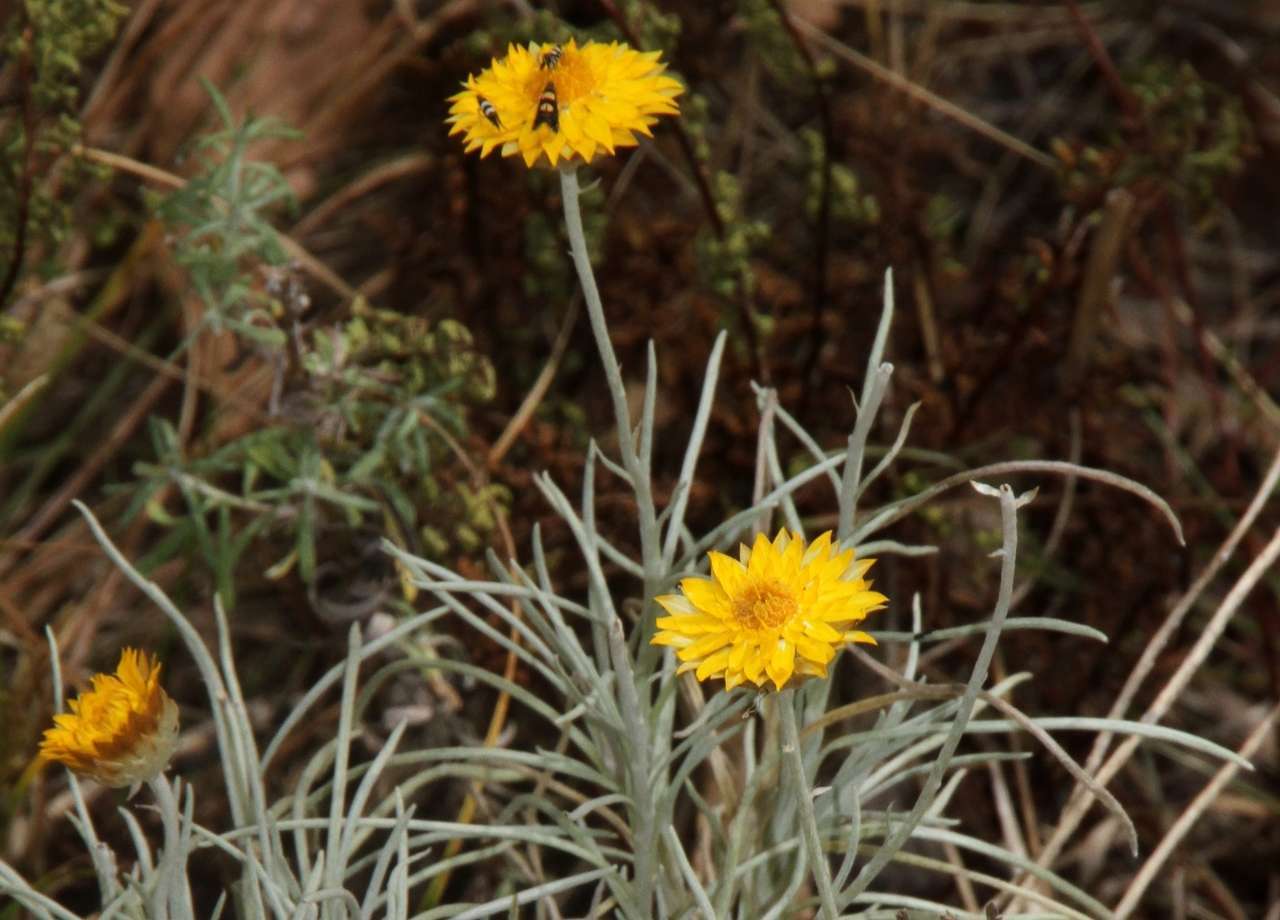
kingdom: Plantae
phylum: Tracheophyta
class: Magnoliopsida
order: Asterales
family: Asteraceae
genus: Leucochrysum
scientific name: Leucochrysum albicans
